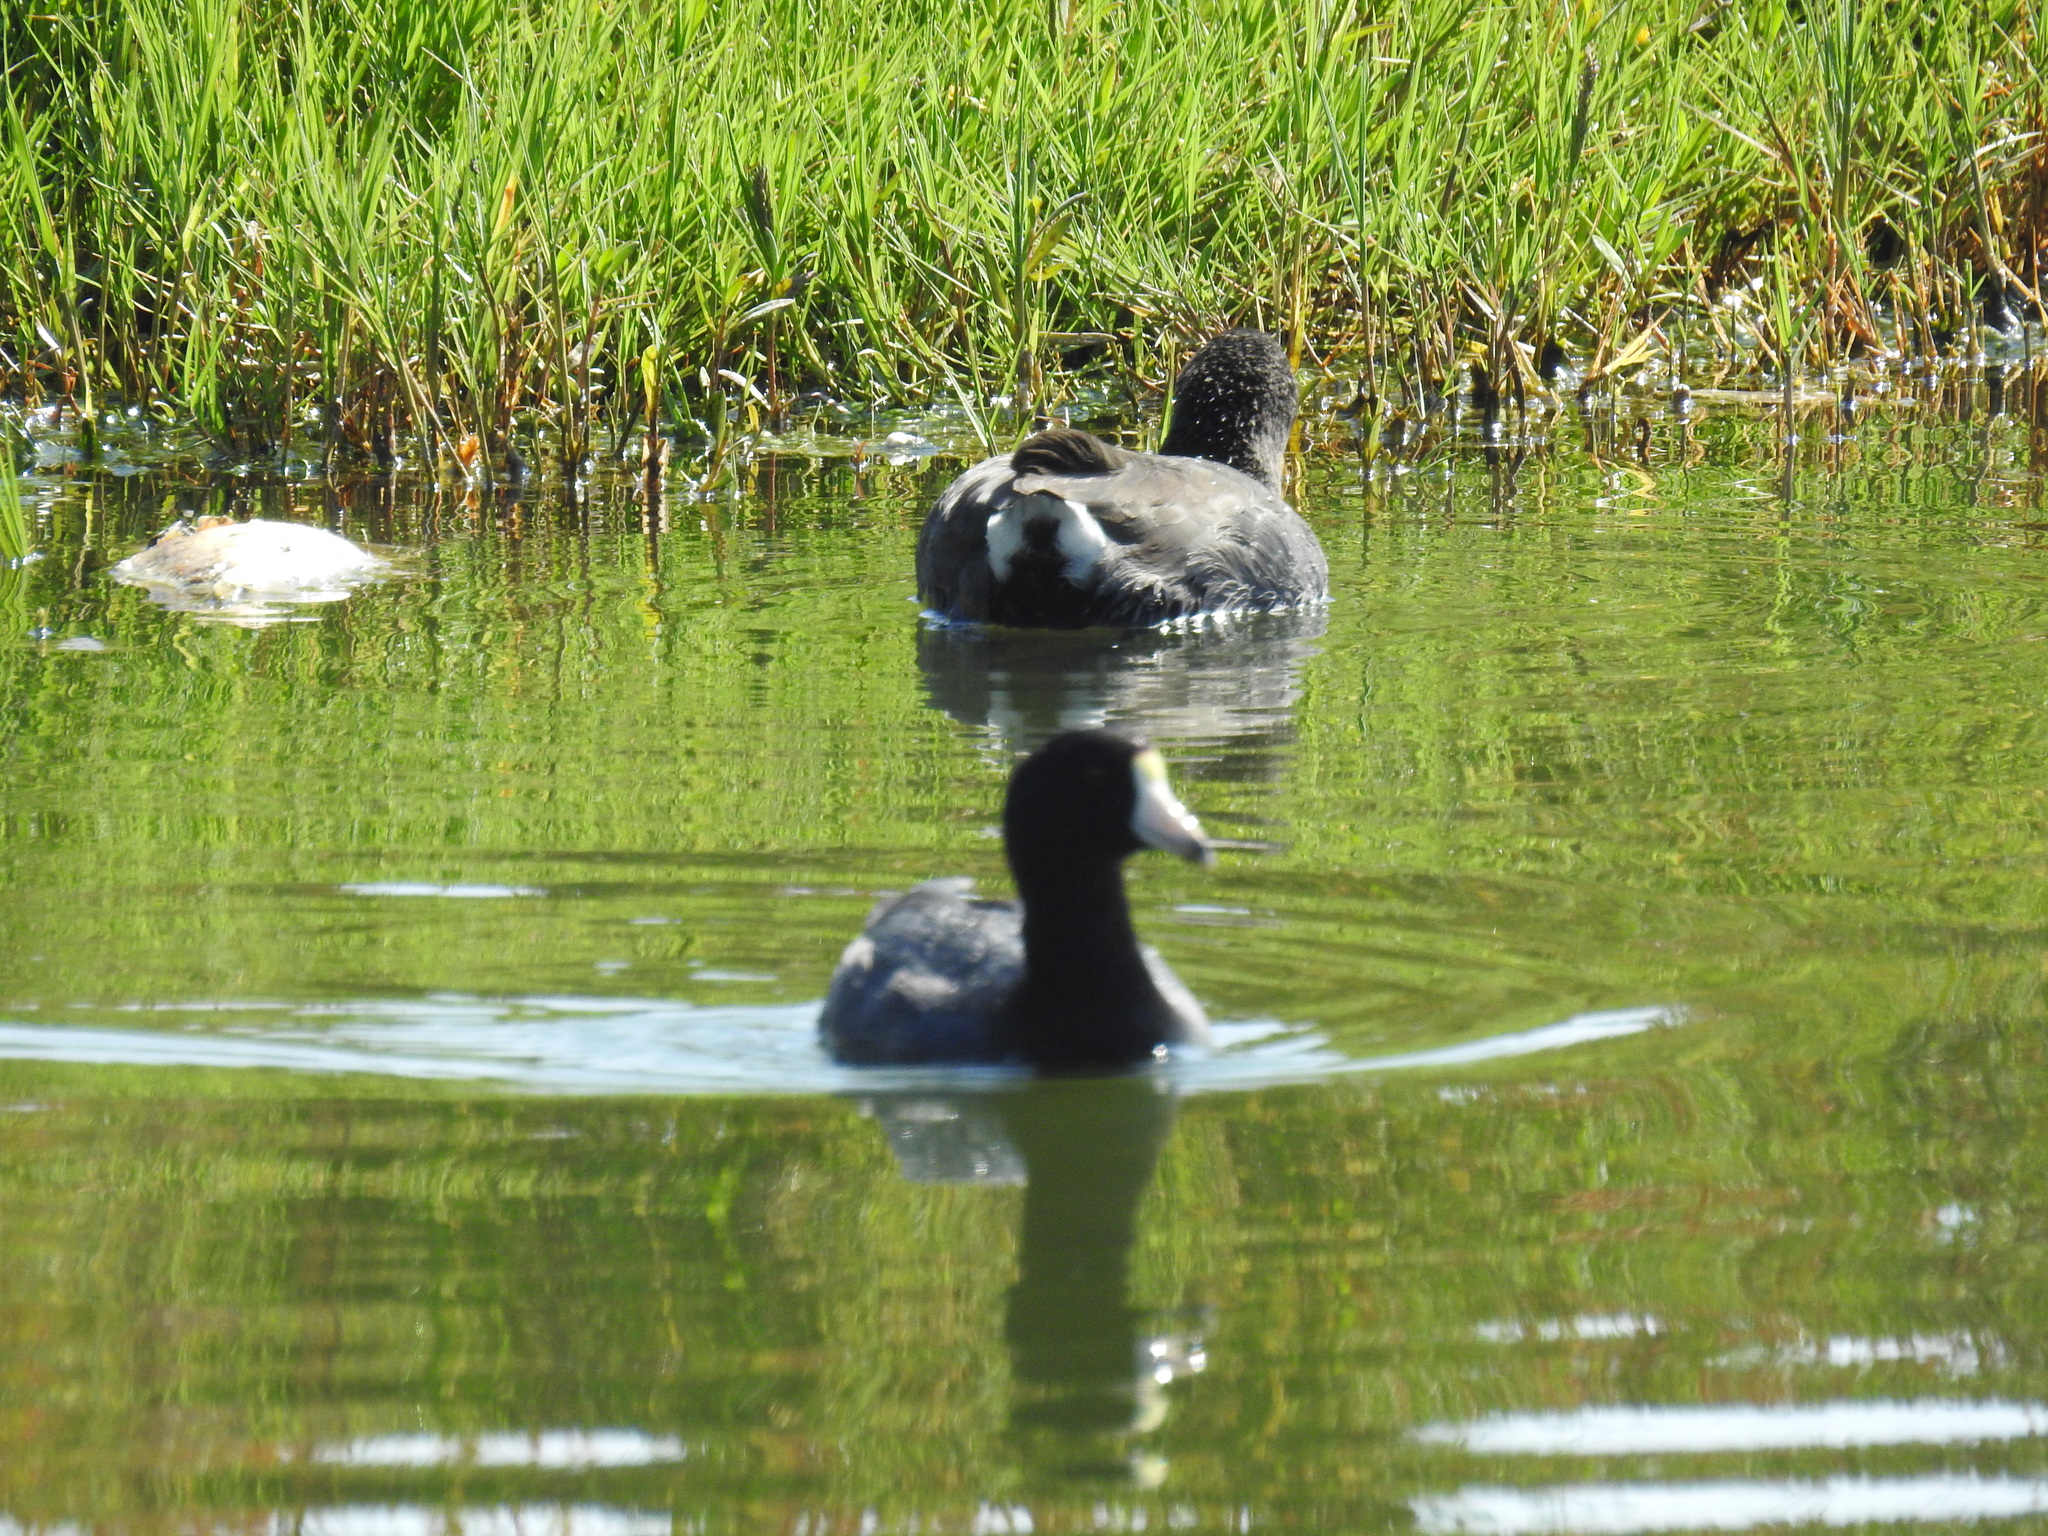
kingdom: Animalia
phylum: Chordata
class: Aves
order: Gruiformes
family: Rallidae
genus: Fulica
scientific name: Fulica americana
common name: American coot
